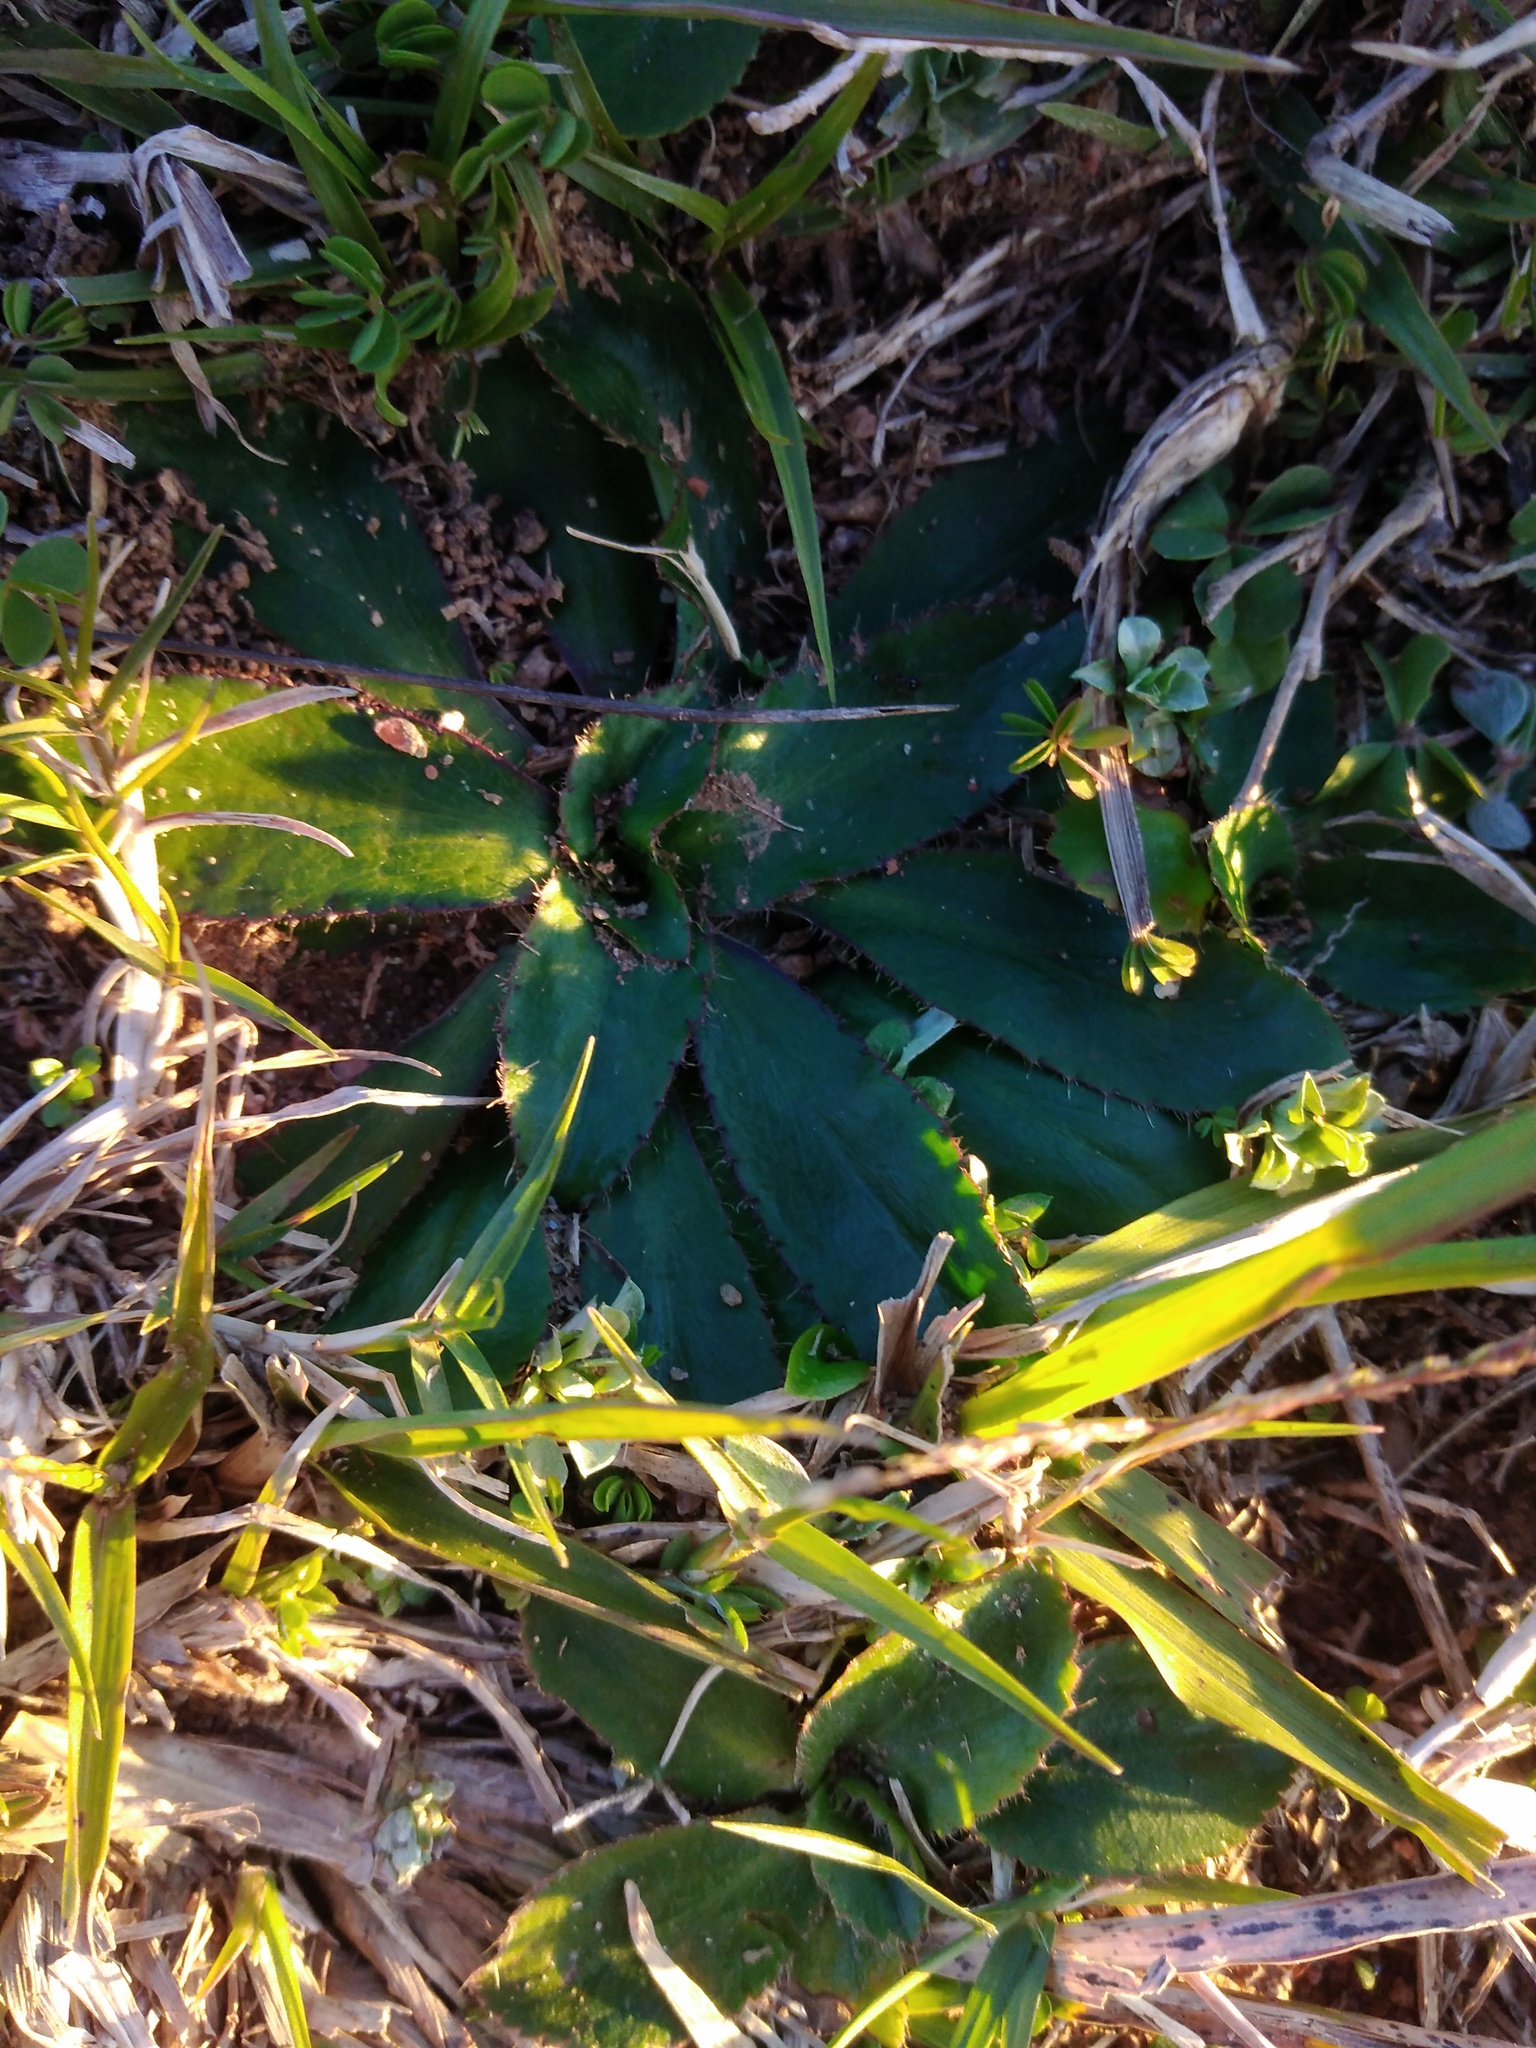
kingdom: Plantae
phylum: Tracheophyta
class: Magnoliopsida
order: Apiales
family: Apiaceae
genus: Eryngium
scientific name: Eryngium nudicaule
